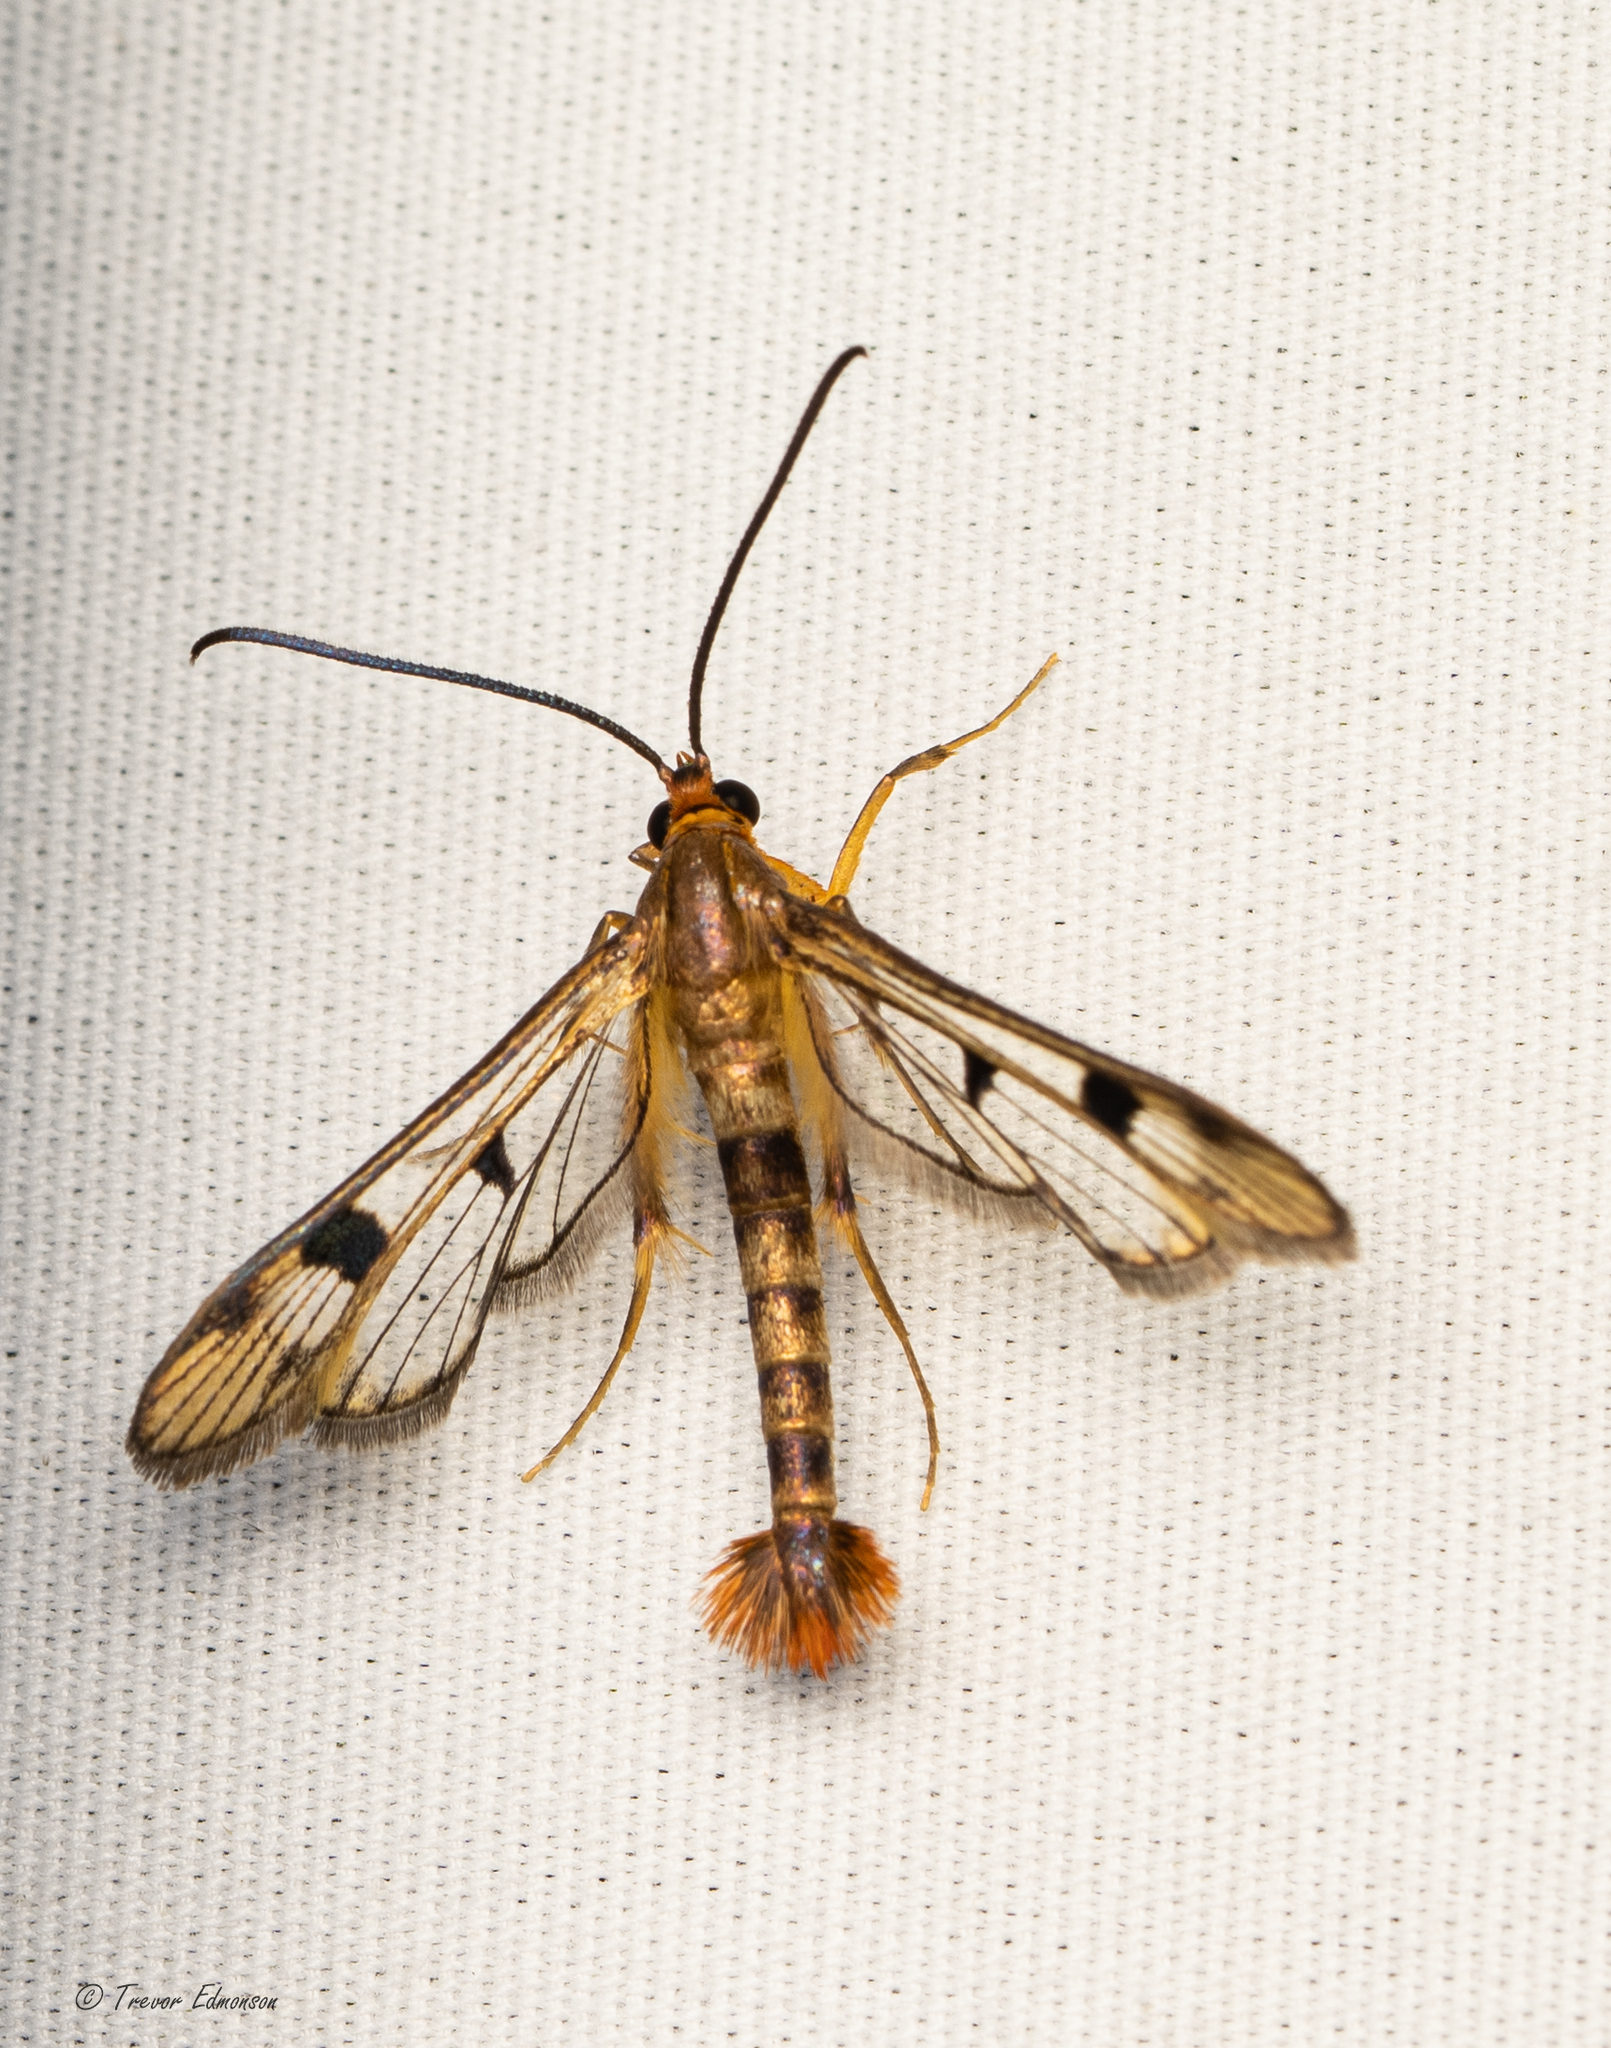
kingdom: Animalia
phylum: Arthropoda
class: Insecta
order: Lepidoptera
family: Sesiidae
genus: Synanthedon
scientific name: Synanthedon acerni
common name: Maple callus borer moth
